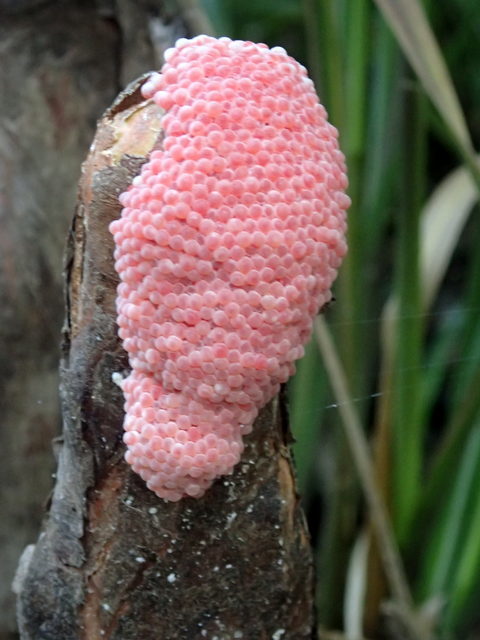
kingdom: Animalia
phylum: Mollusca
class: Gastropoda
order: Architaenioglossa
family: Ampullariidae
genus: Pomacea
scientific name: Pomacea maculata
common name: Giant applesnail
